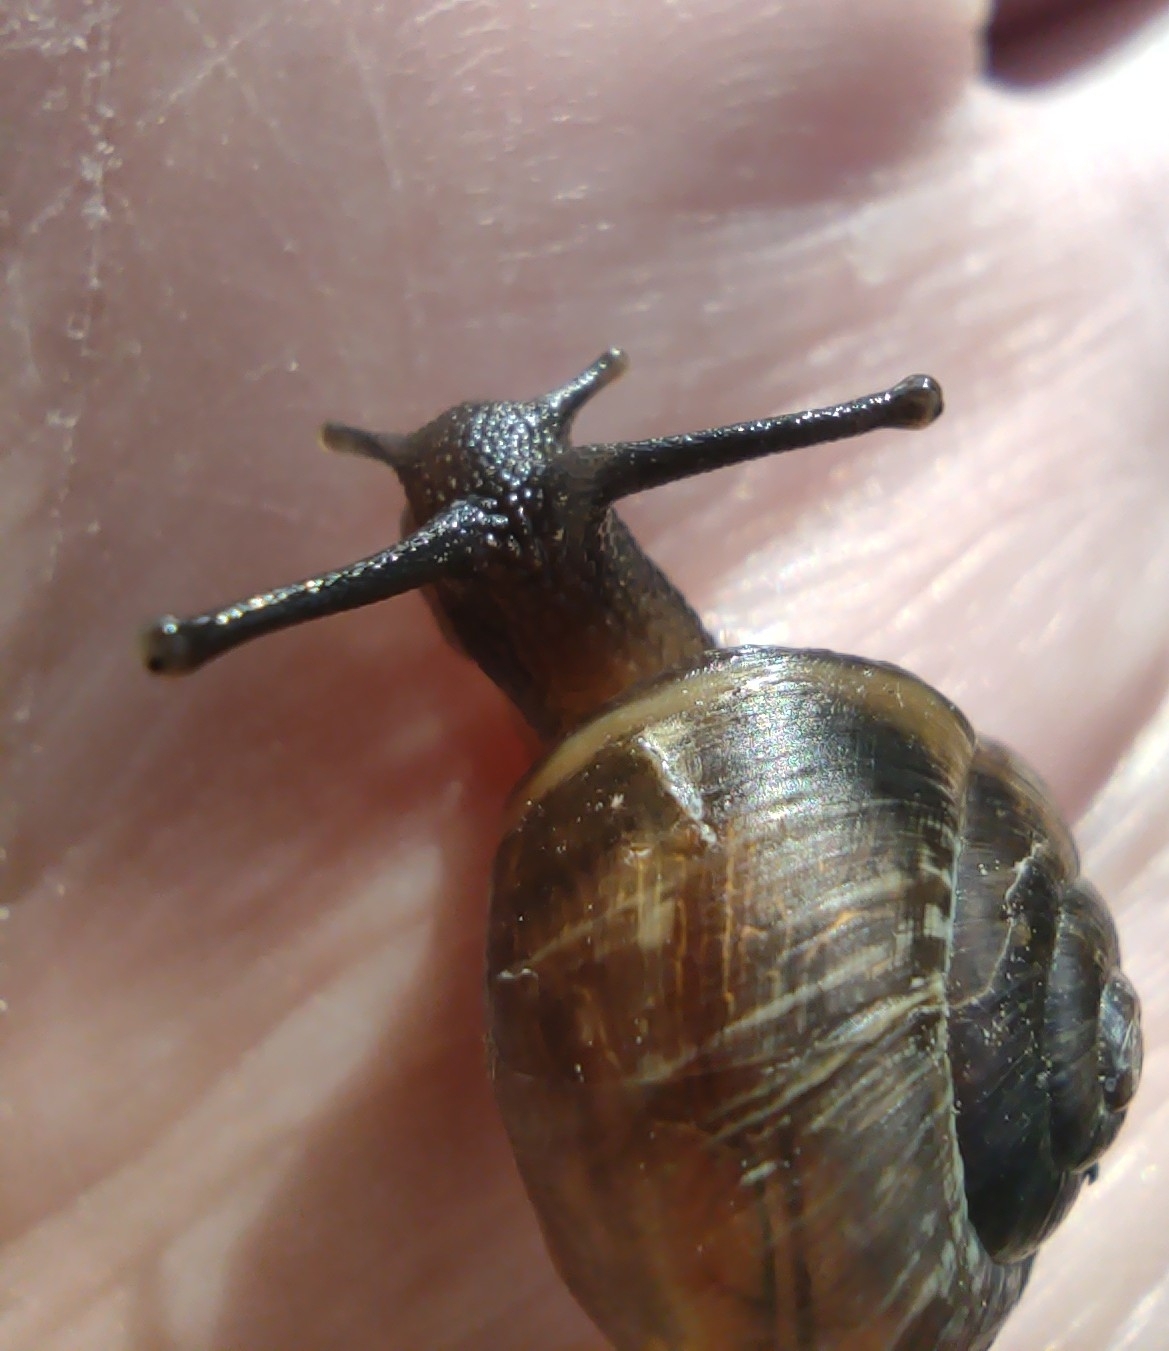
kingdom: Animalia
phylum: Mollusca
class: Gastropoda
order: Stylommatophora
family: Helicidae
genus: Arianta
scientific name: Arianta arbustorum
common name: Copse snail
